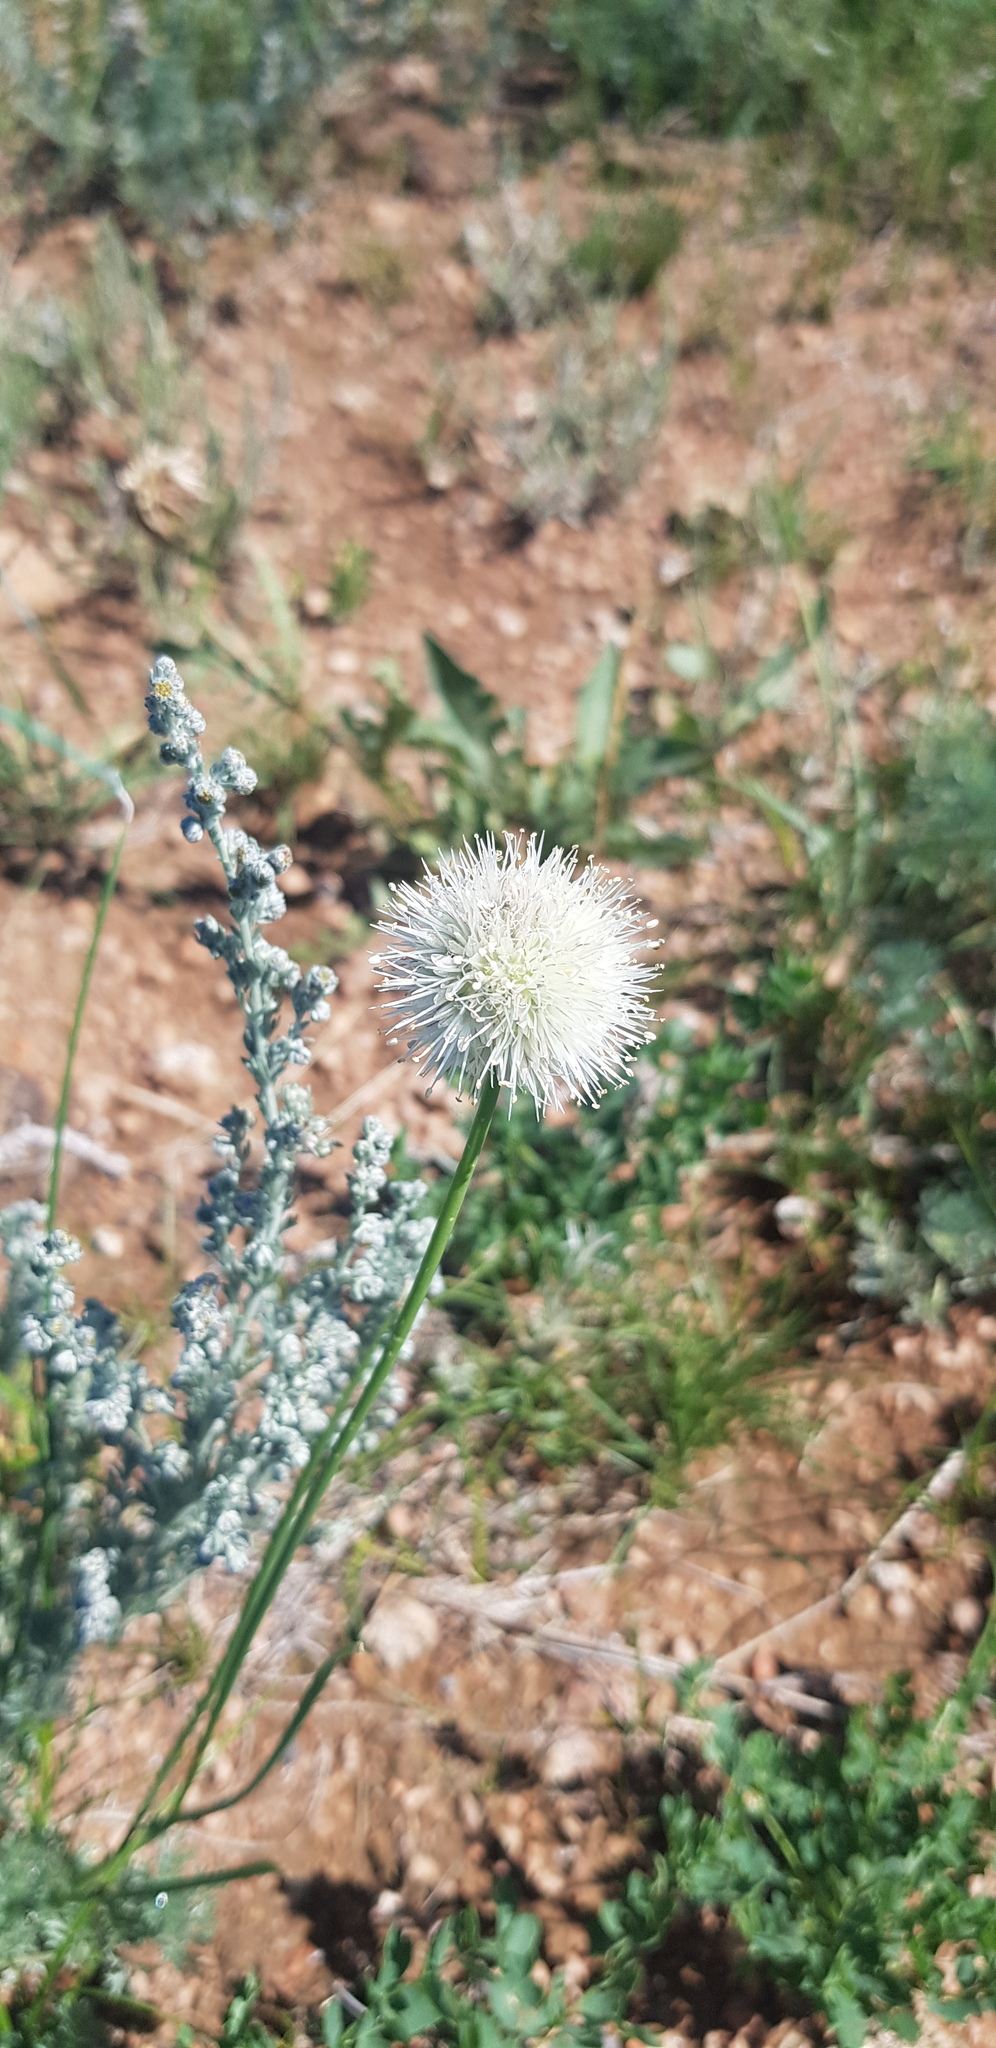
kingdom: Plantae
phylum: Tracheophyta
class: Liliopsida
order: Asparagales
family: Amaryllidaceae
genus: Allium
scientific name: Allium leucocephalum
